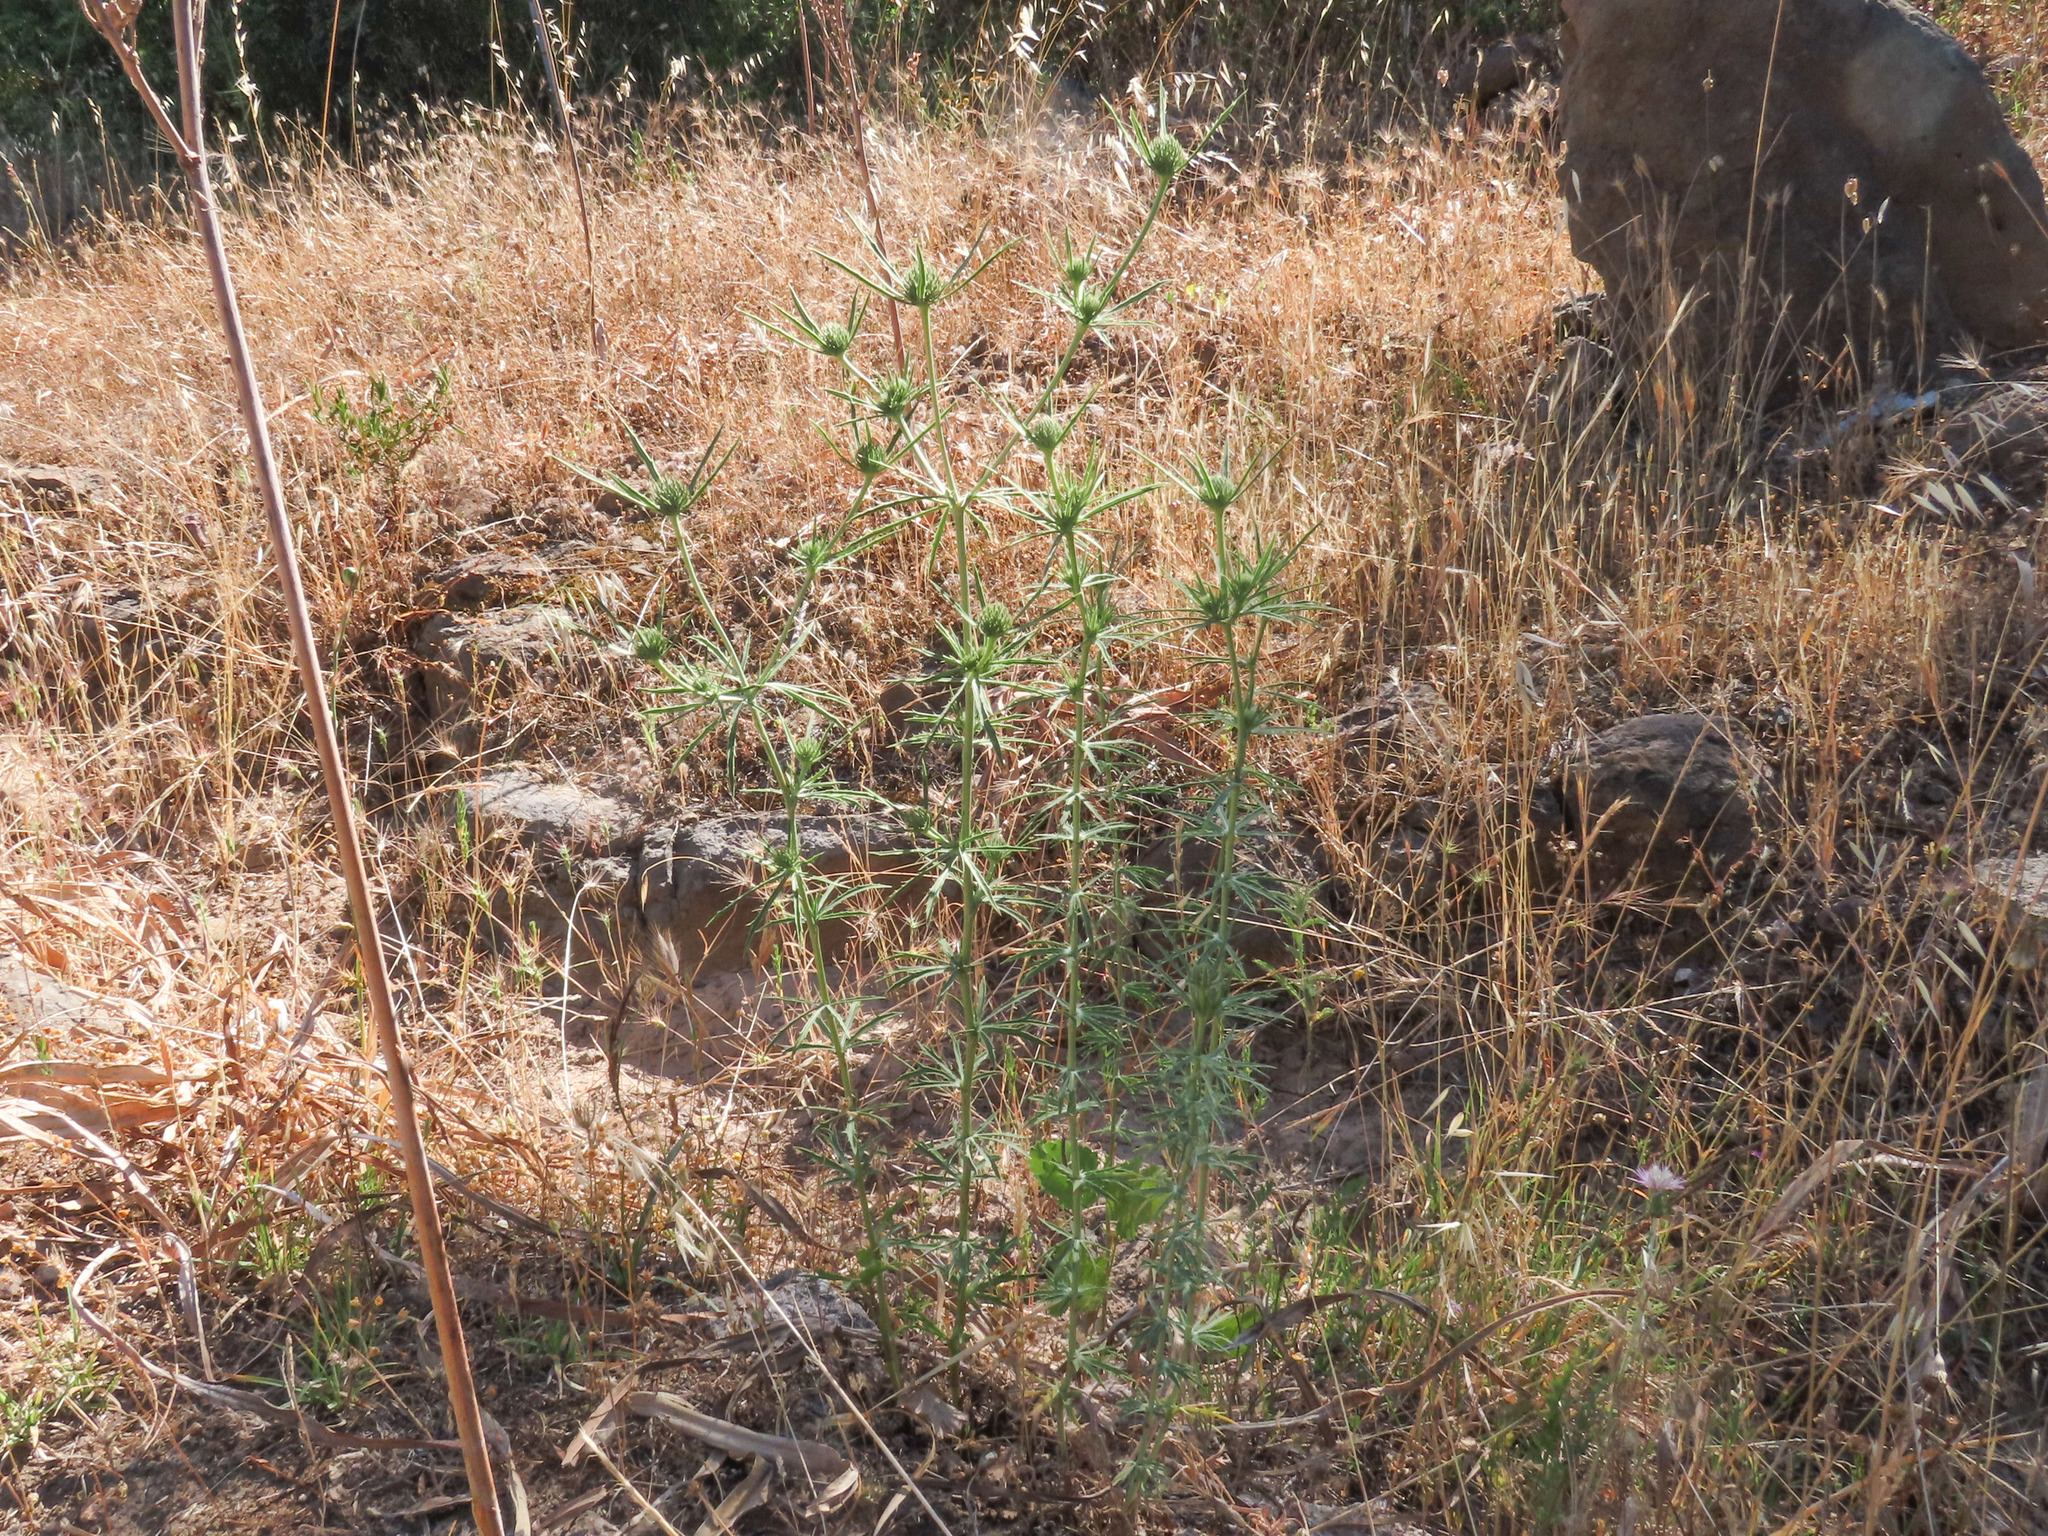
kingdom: Plantae
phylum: Tracheophyta
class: Magnoliopsida
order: Apiales
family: Apiaceae
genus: Eryngium
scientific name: Eryngium tricuspidatum
